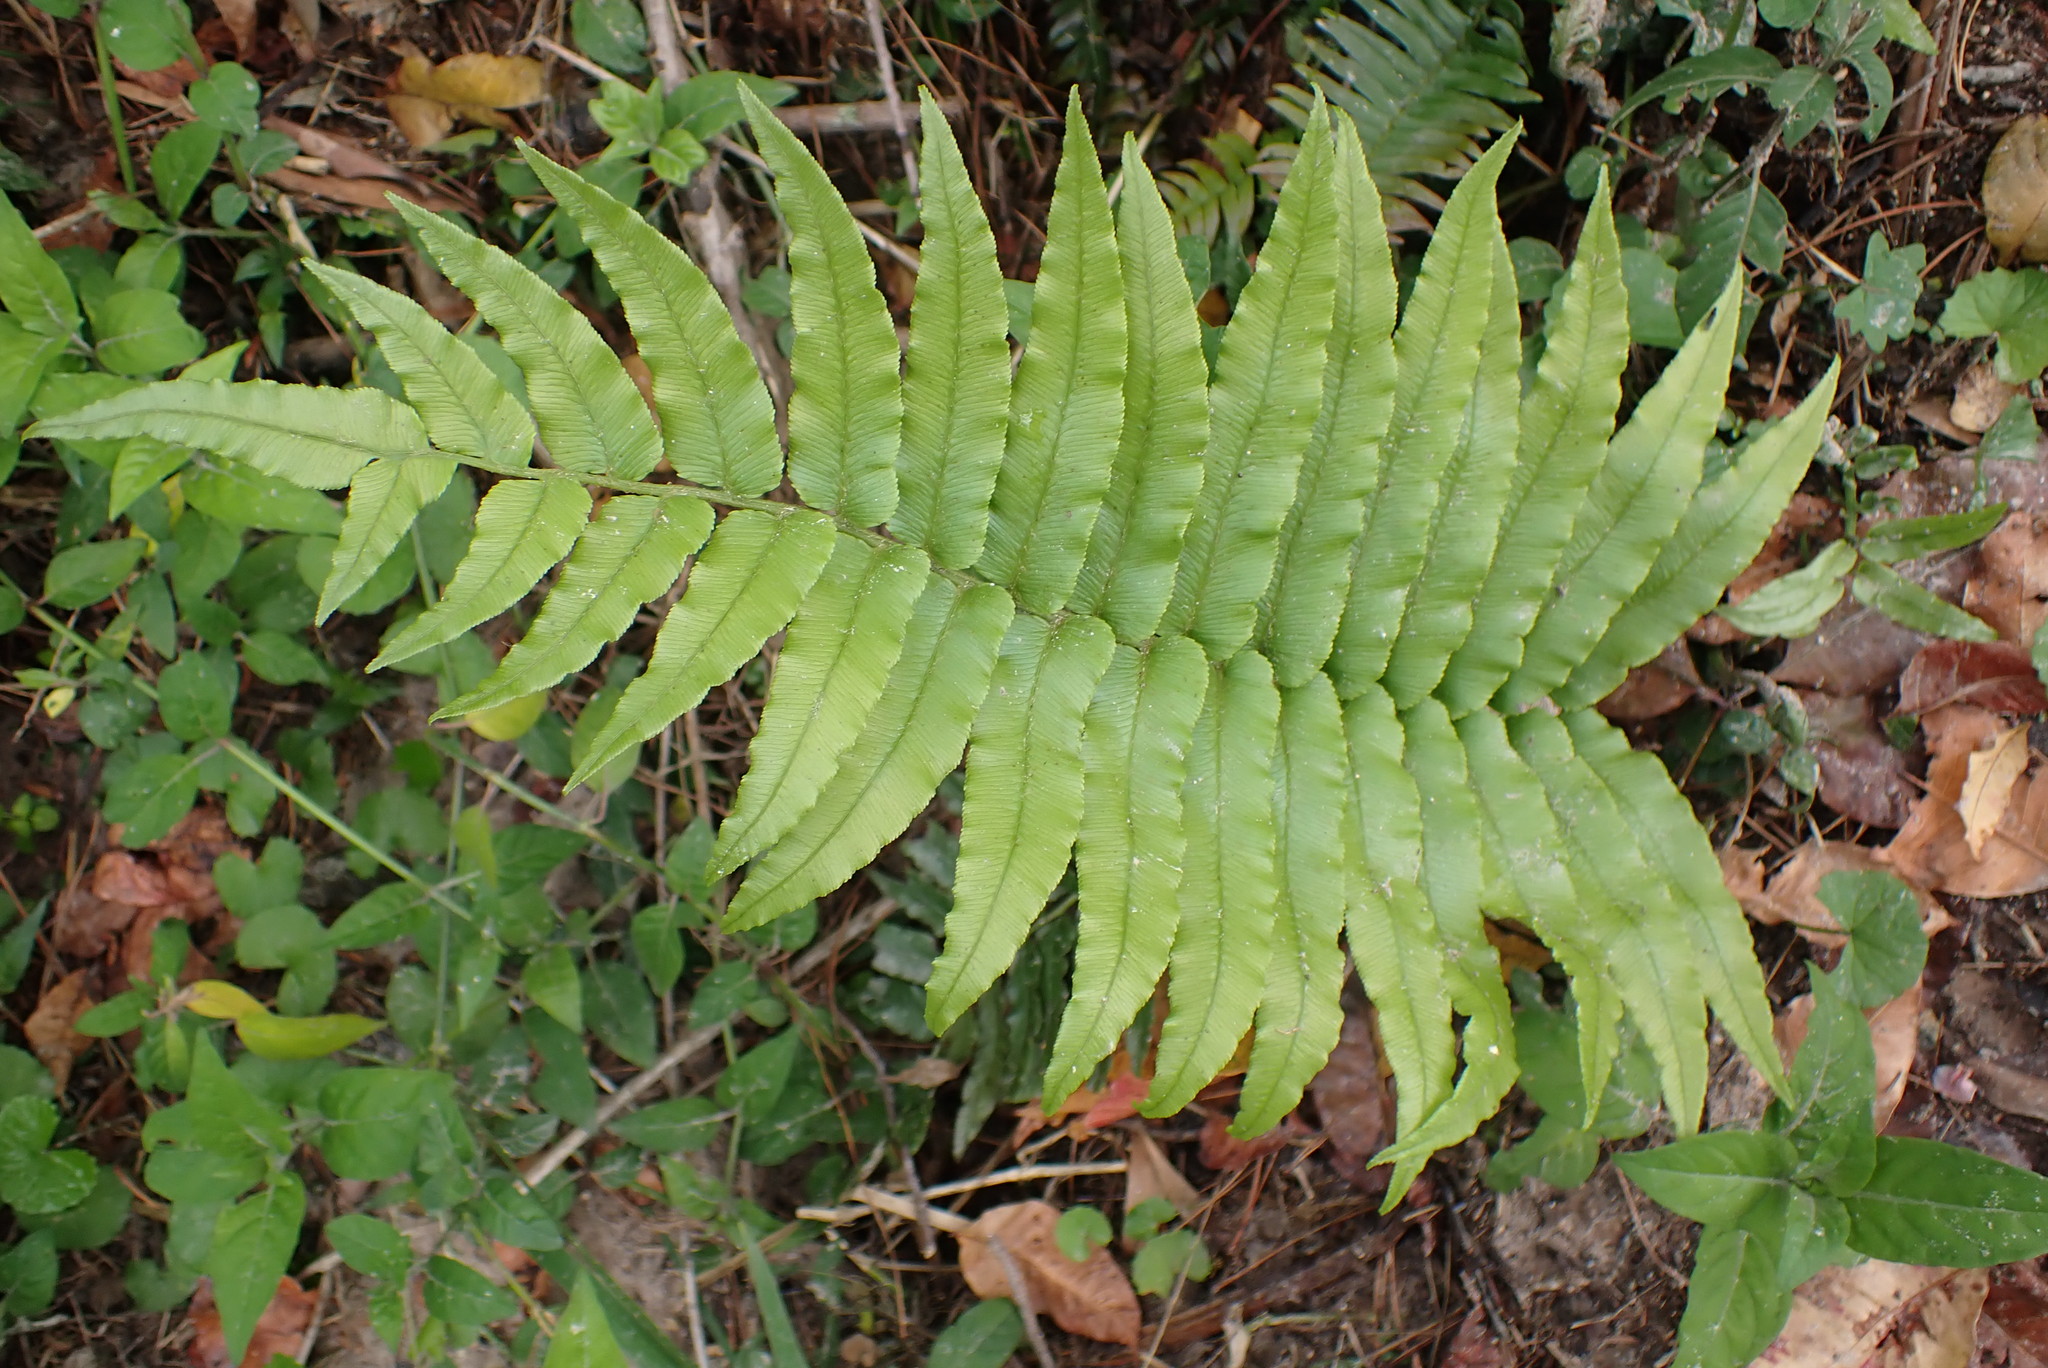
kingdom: Plantae
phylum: Tracheophyta
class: Polypodiopsida
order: Polypodiales
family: Blechnaceae
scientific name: Blechnaceae
